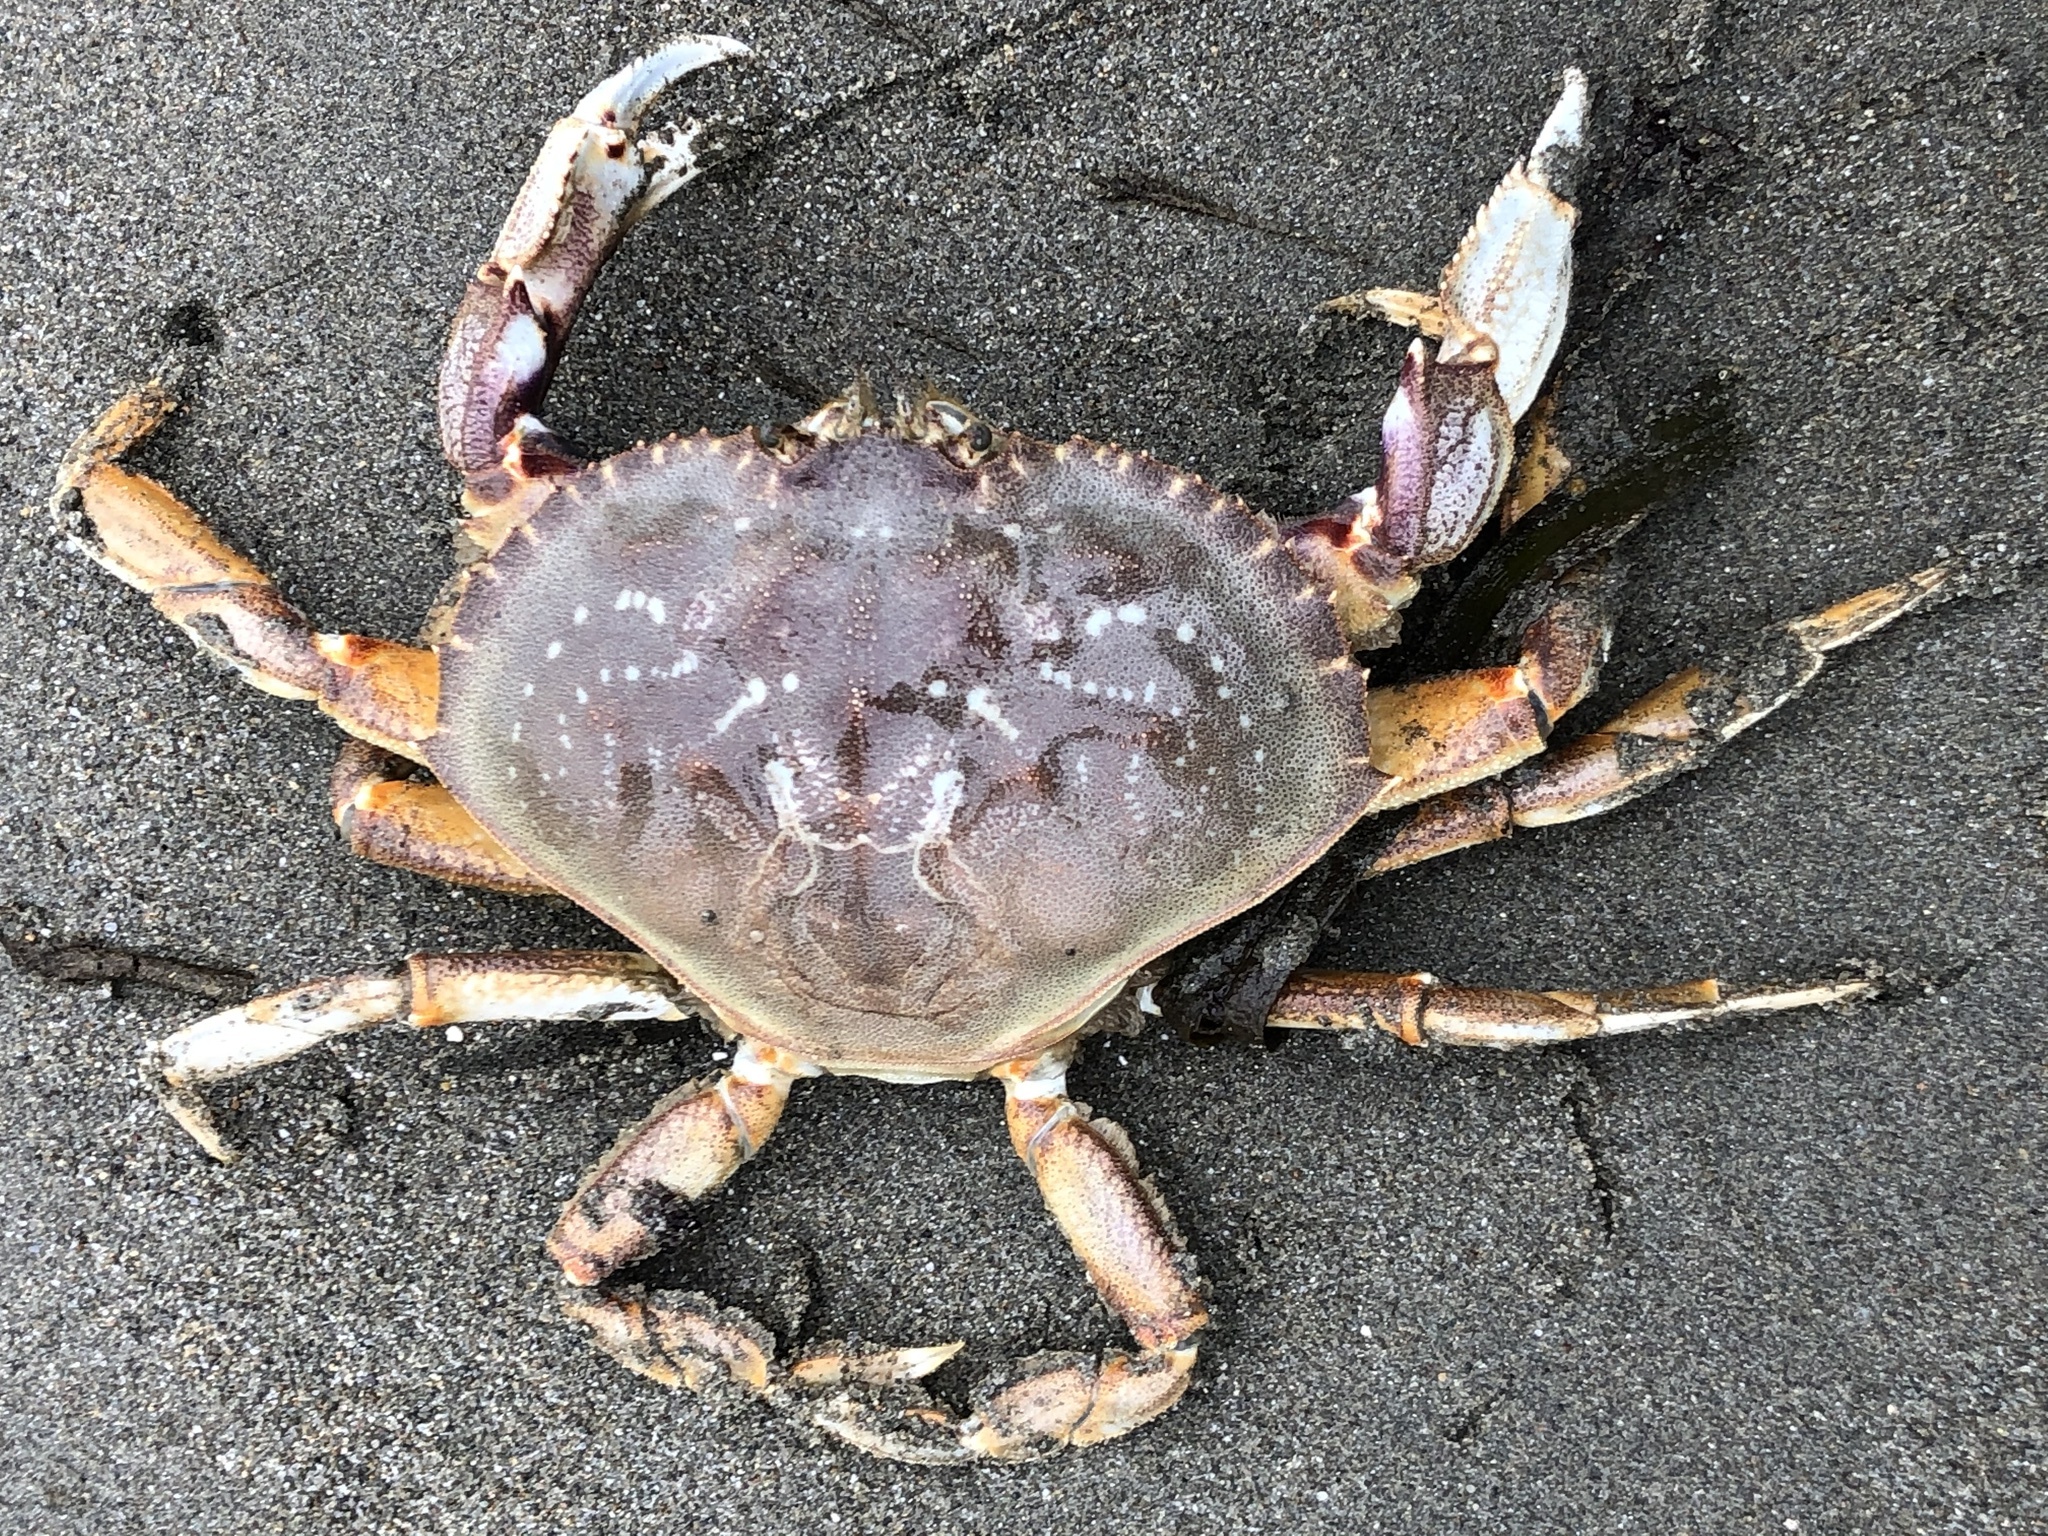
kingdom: Animalia
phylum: Arthropoda
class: Malacostraca
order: Decapoda
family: Cancridae
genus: Metacarcinus
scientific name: Metacarcinus magister
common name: Californian crab
